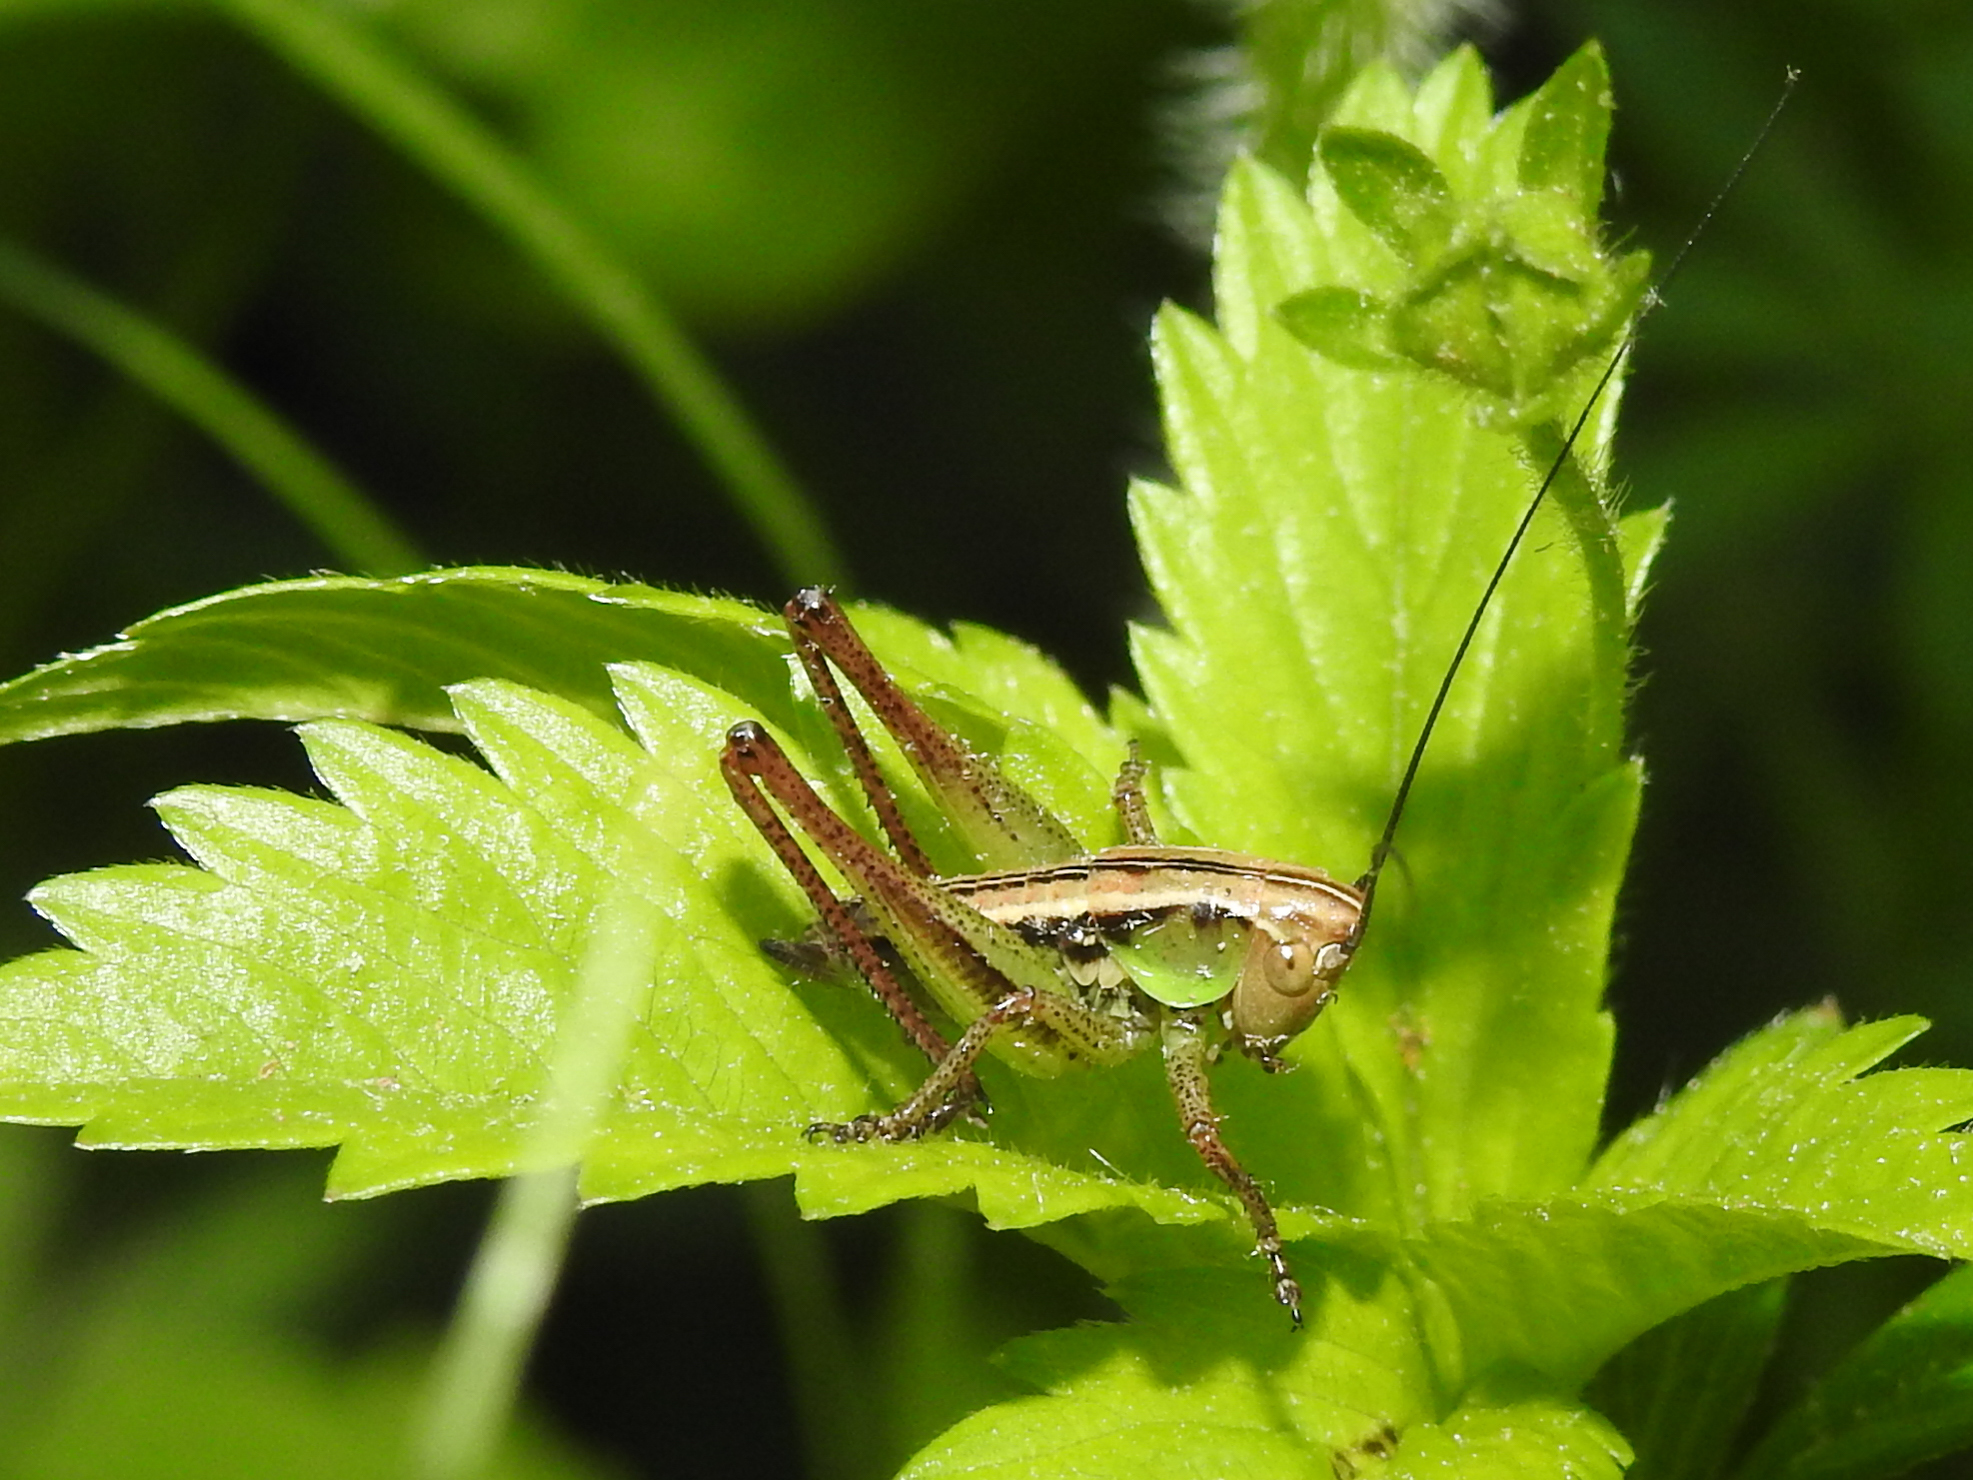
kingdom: Animalia
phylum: Arthropoda
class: Insecta
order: Orthoptera
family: Tettigoniidae
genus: Roeseliana
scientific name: Roeseliana roeselii
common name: Roesel's bush cricket
